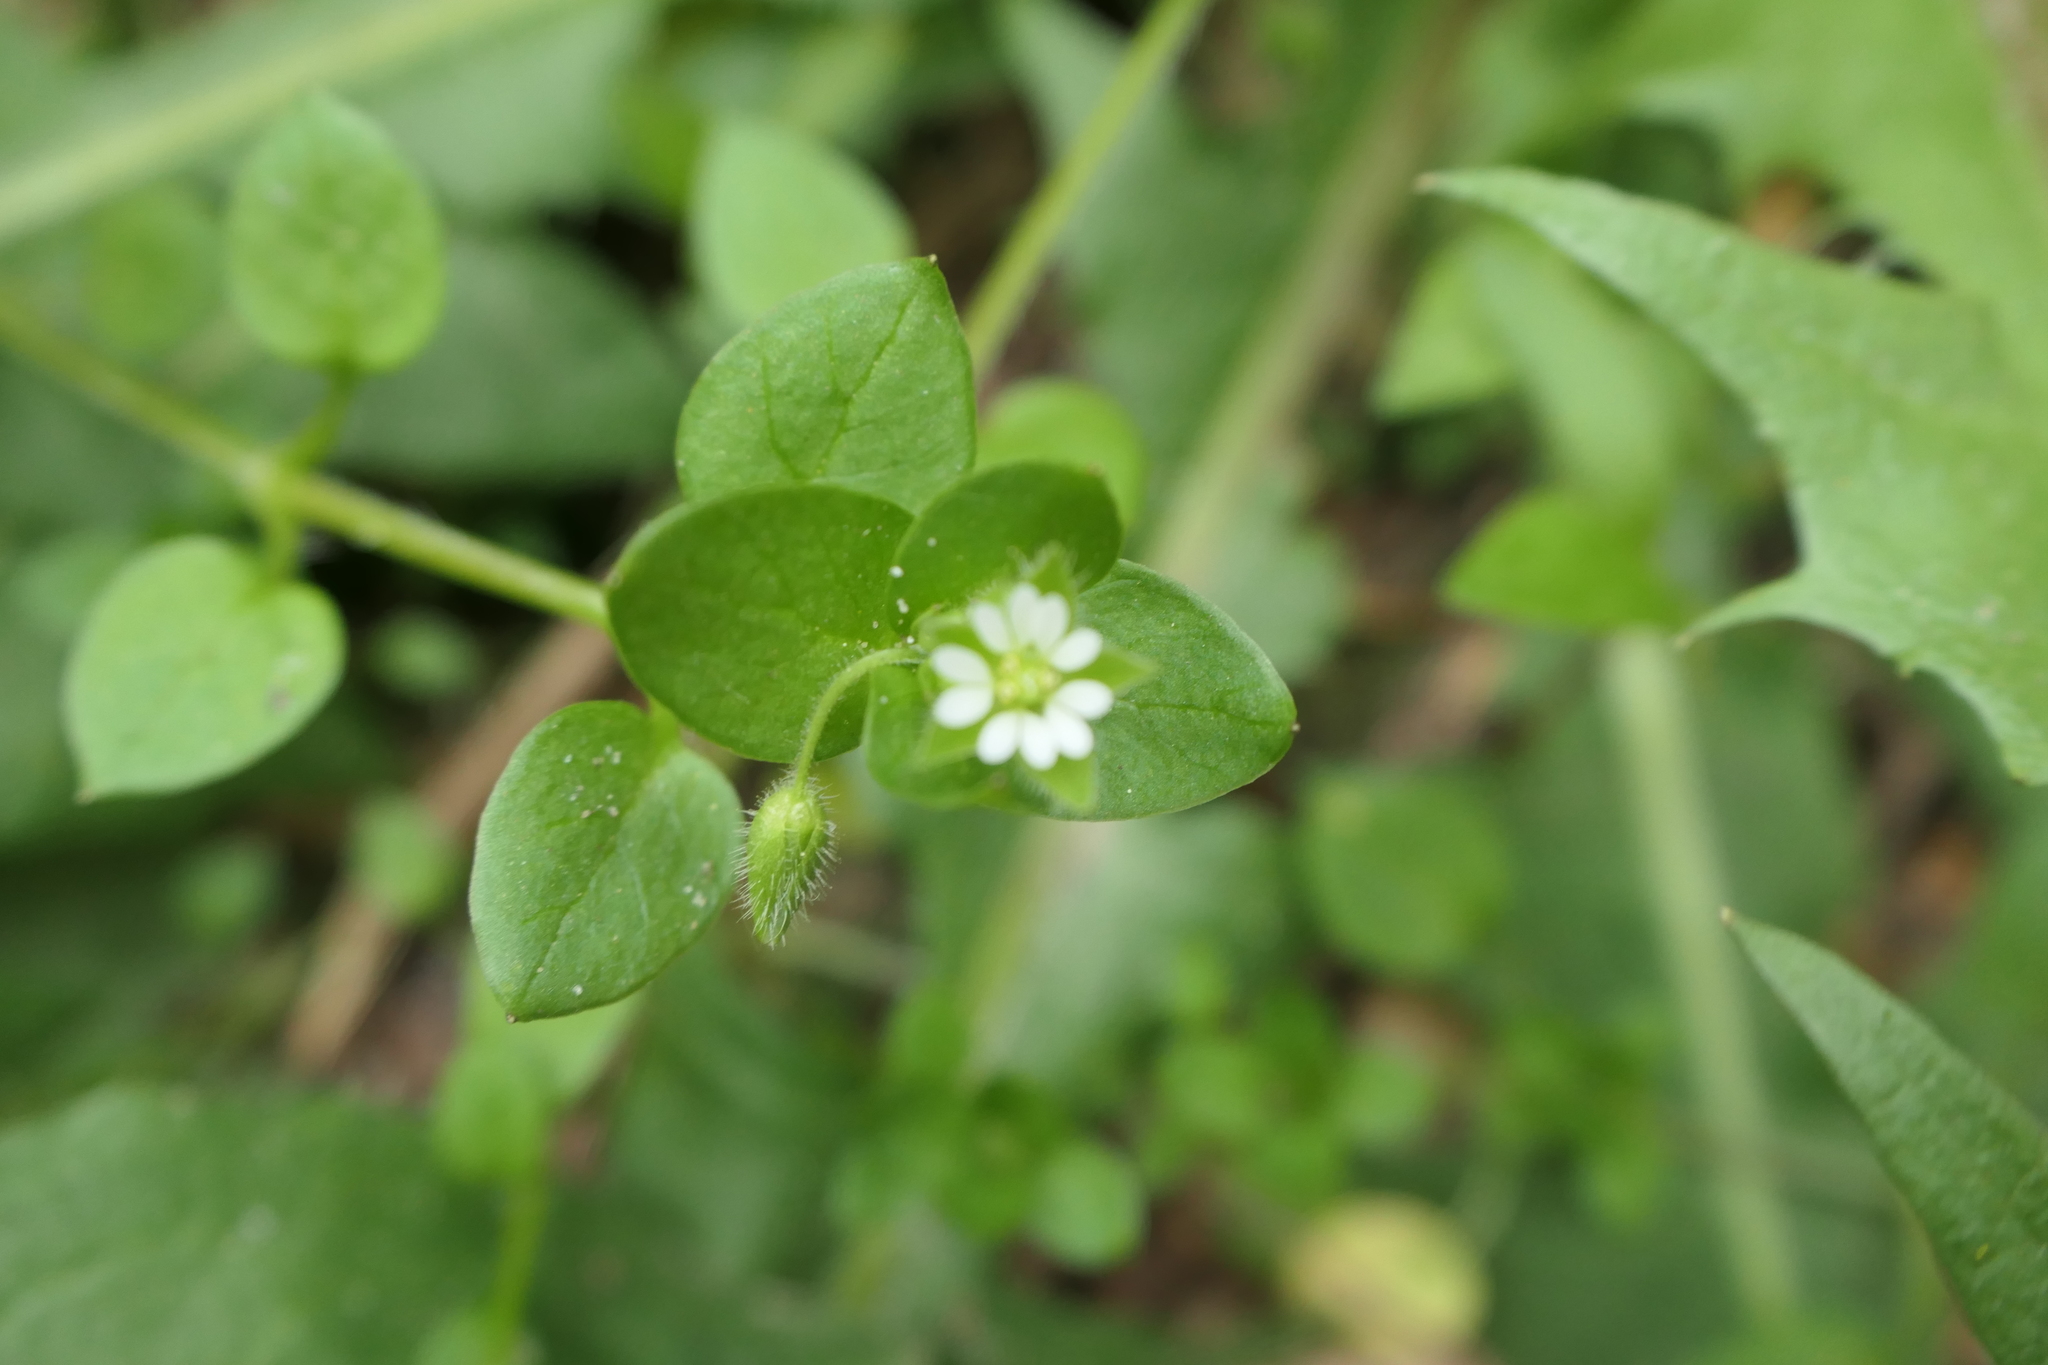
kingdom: Plantae
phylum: Tracheophyta
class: Magnoliopsida
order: Caryophyllales
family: Caryophyllaceae
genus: Stellaria
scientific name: Stellaria media
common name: Common chickweed
